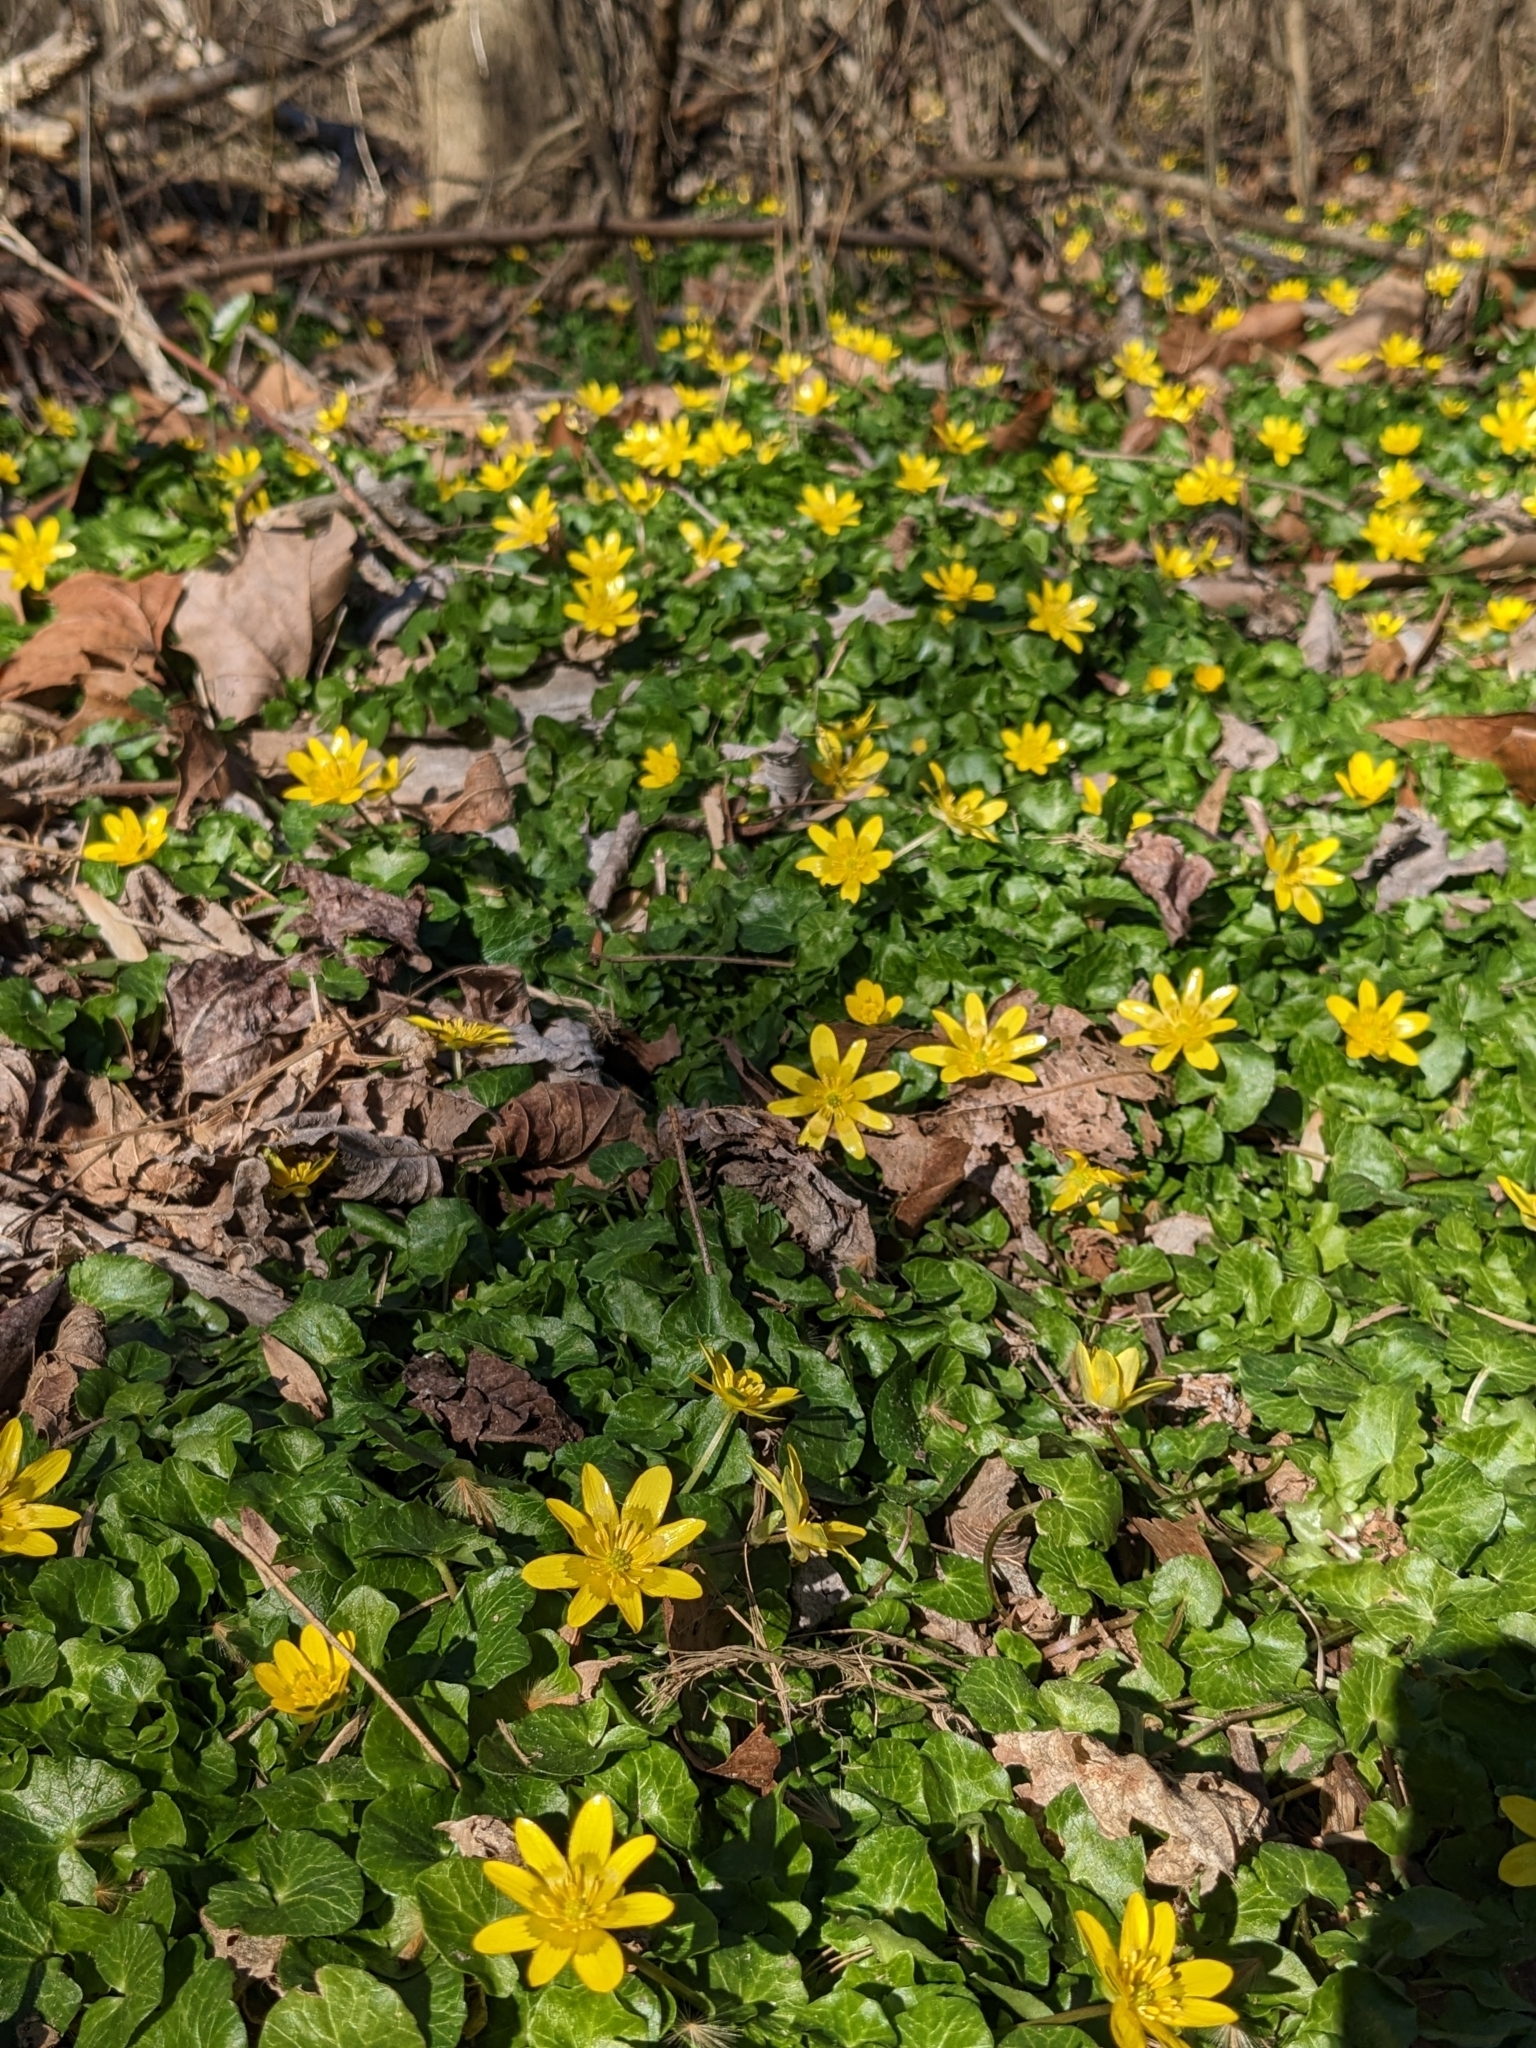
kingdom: Plantae
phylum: Tracheophyta
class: Magnoliopsida
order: Ranunculales
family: Ranunculaceae
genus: Ficaria
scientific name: Ficaria verna
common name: Lesser celandine
